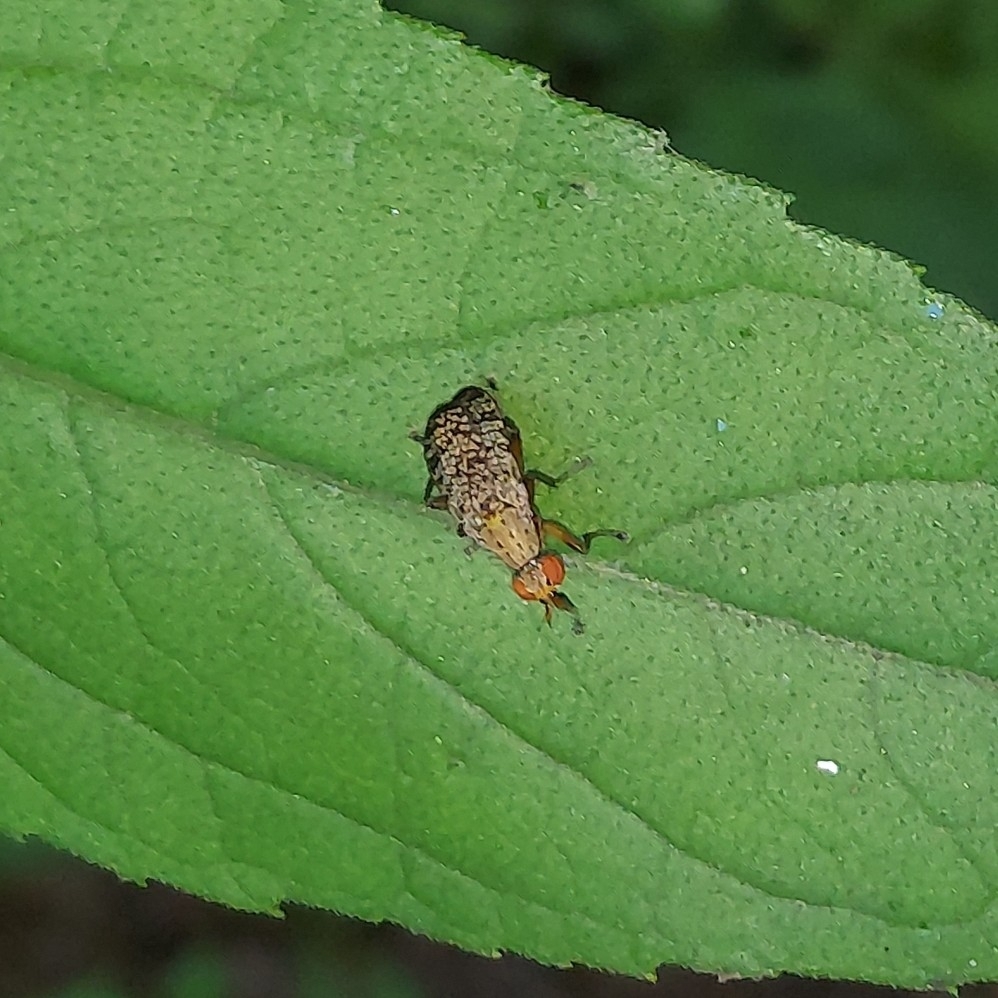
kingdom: Animalia
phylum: Arthropoda
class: Insecta
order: Diptera
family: Sciomyzidae
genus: Euthycera
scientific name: Euthycera flavescens
